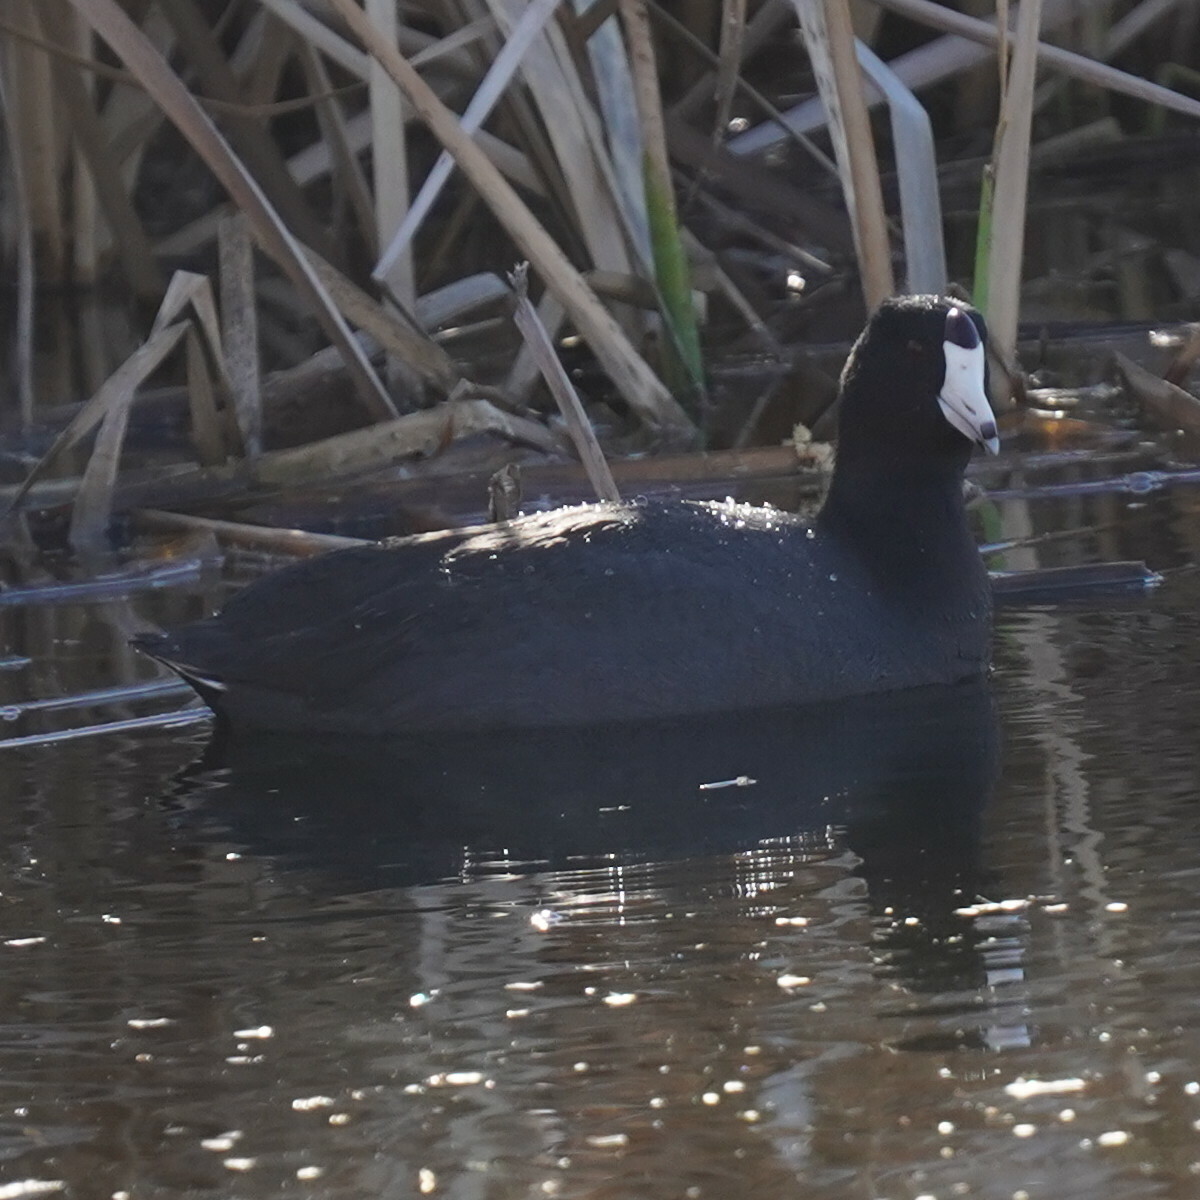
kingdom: Animalia
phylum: Chordata
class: Aves
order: Gruiformes
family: Rallidae
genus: Fulica
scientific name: Fulica americana
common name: American coot
